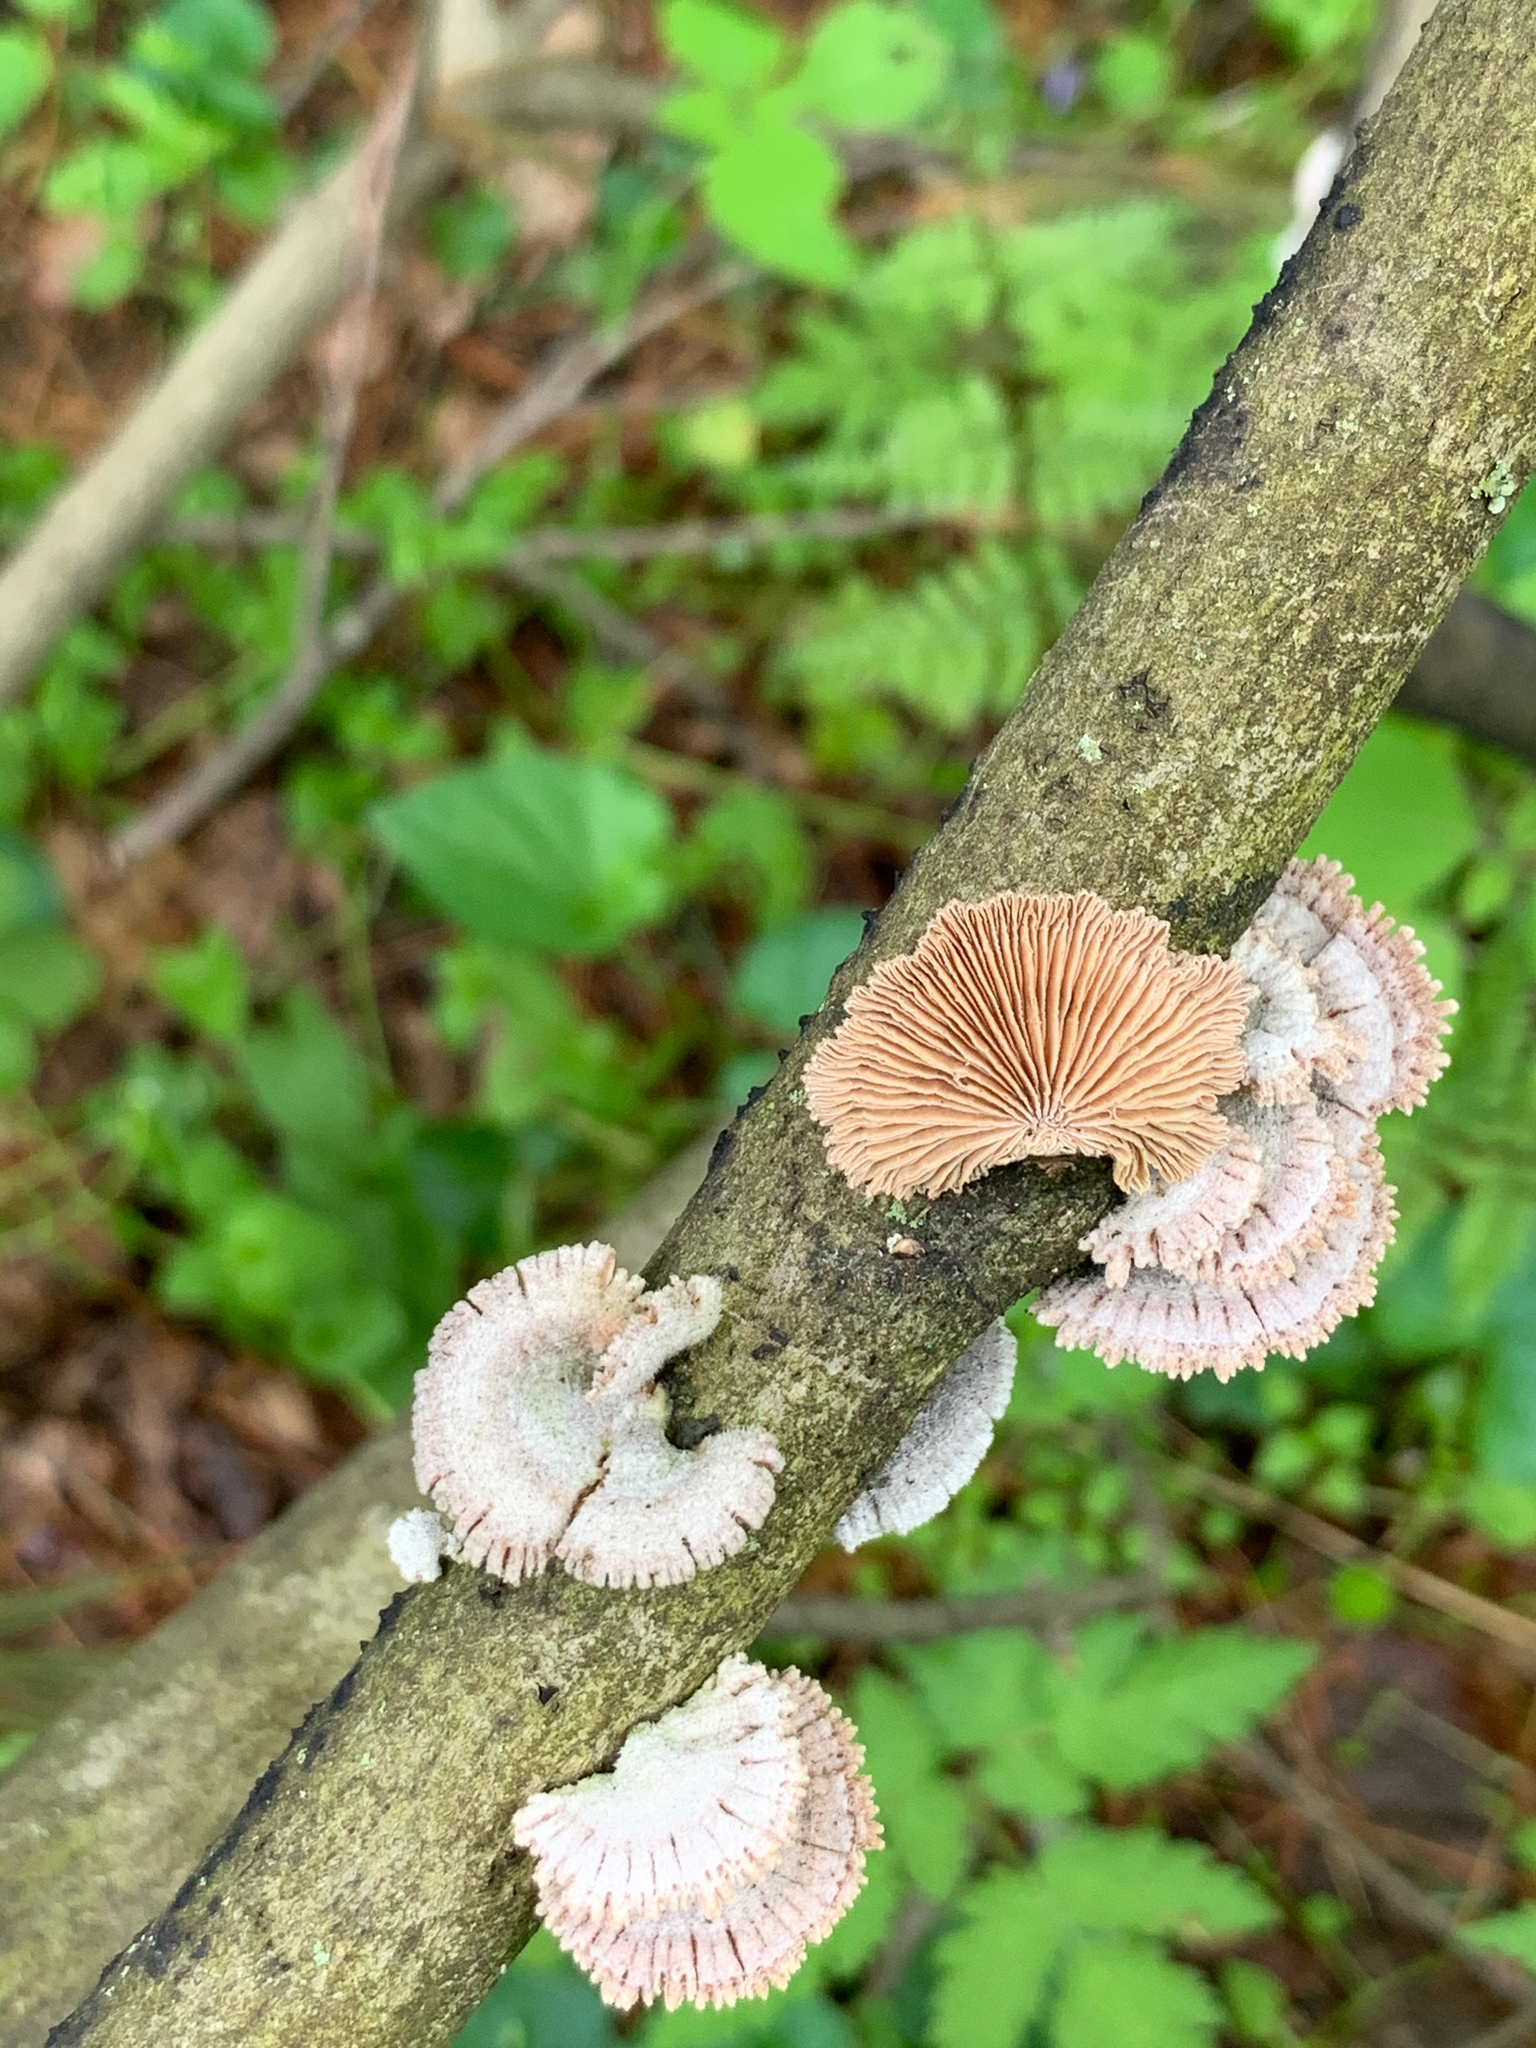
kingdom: Fungi
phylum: Basidiomycota
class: Agaricomycetes
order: Agaricales
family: Schizophyllaceae
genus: Schizophyllum
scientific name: Schizophyllum commune
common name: Common porecrust
